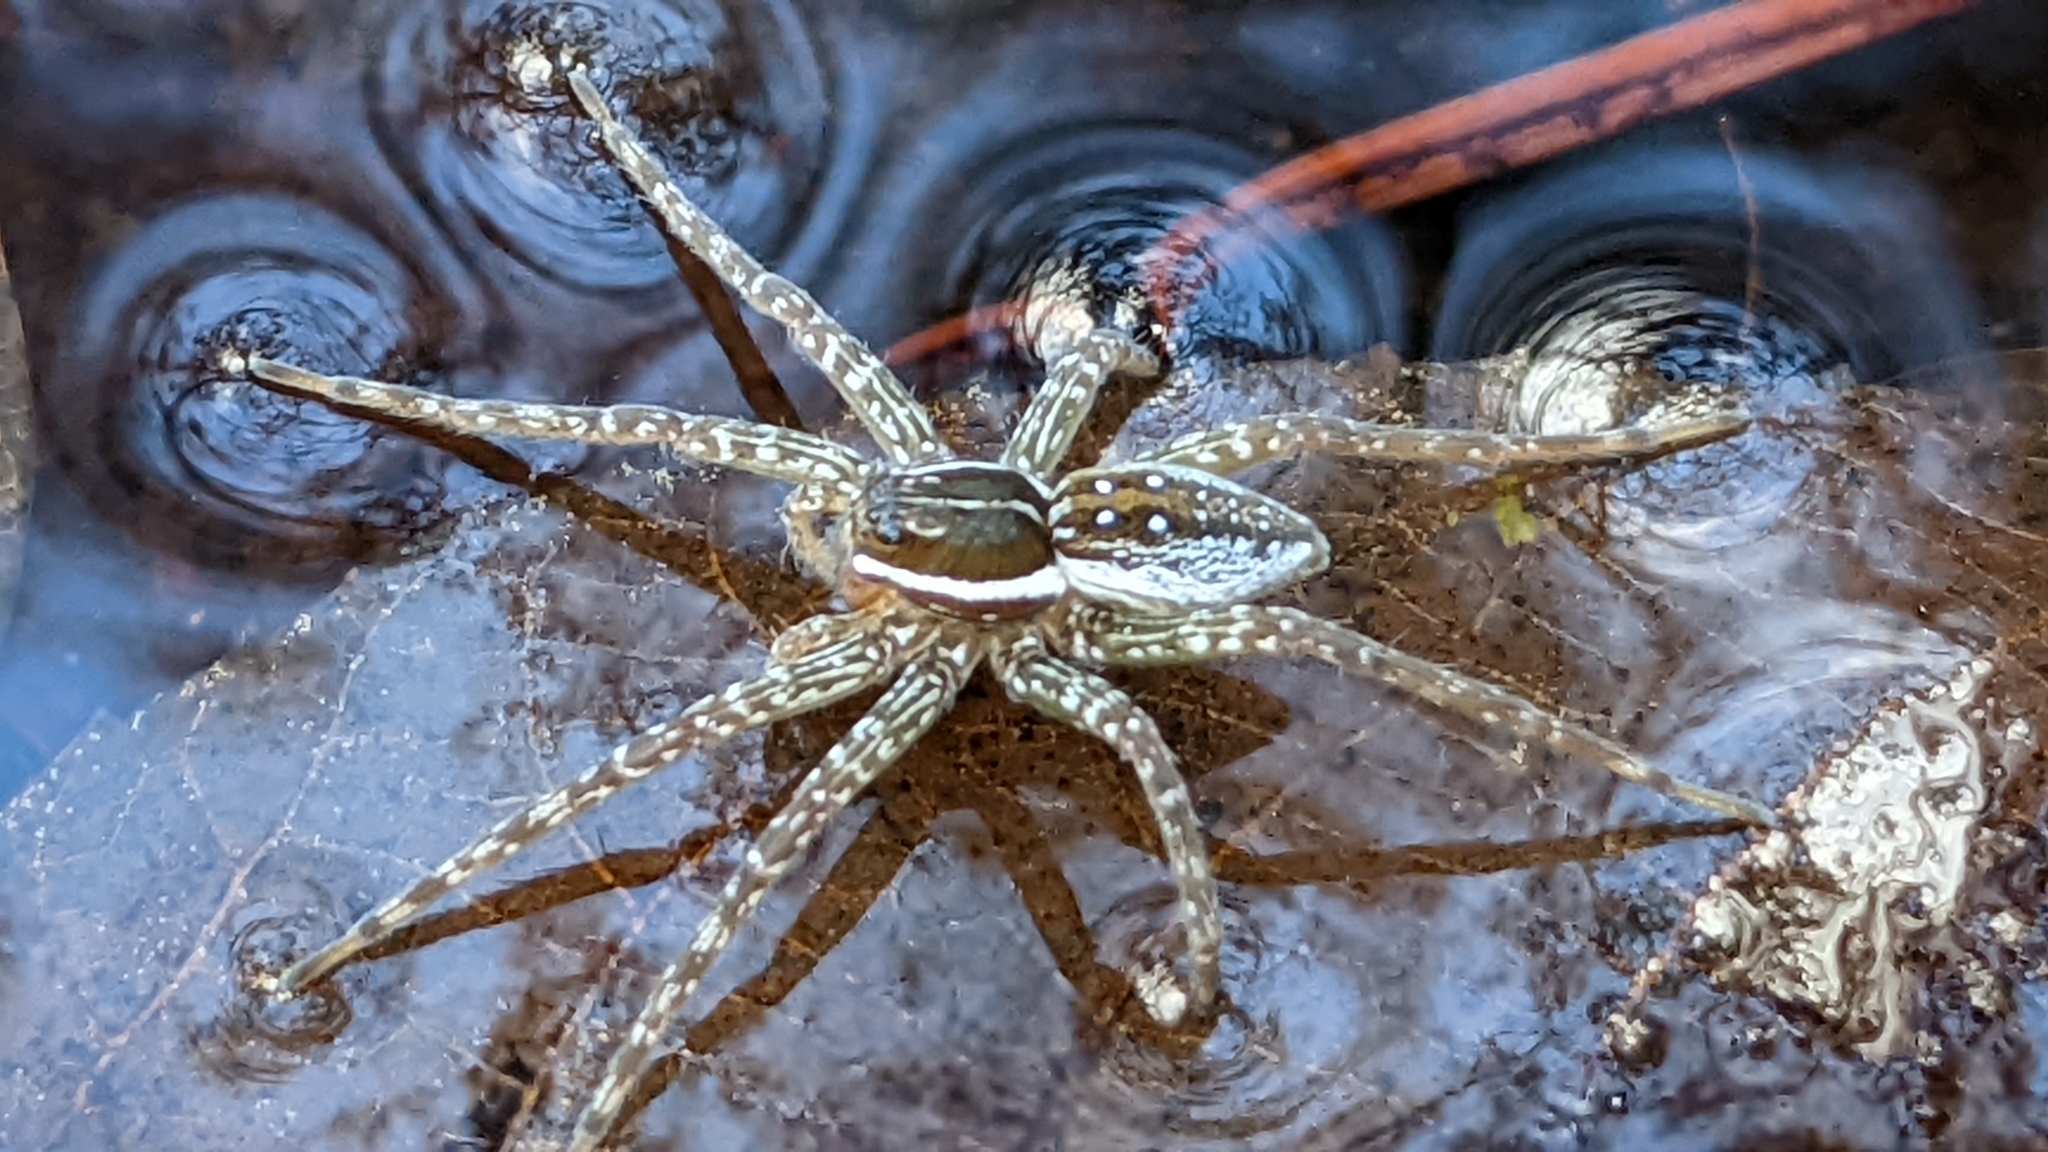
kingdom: Animalia
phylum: Arthropoda
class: Arachnida
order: Araneae
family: Pisauridae
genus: Dolomedes
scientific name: Dolomedes triton
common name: Six-spotted fishing spider
